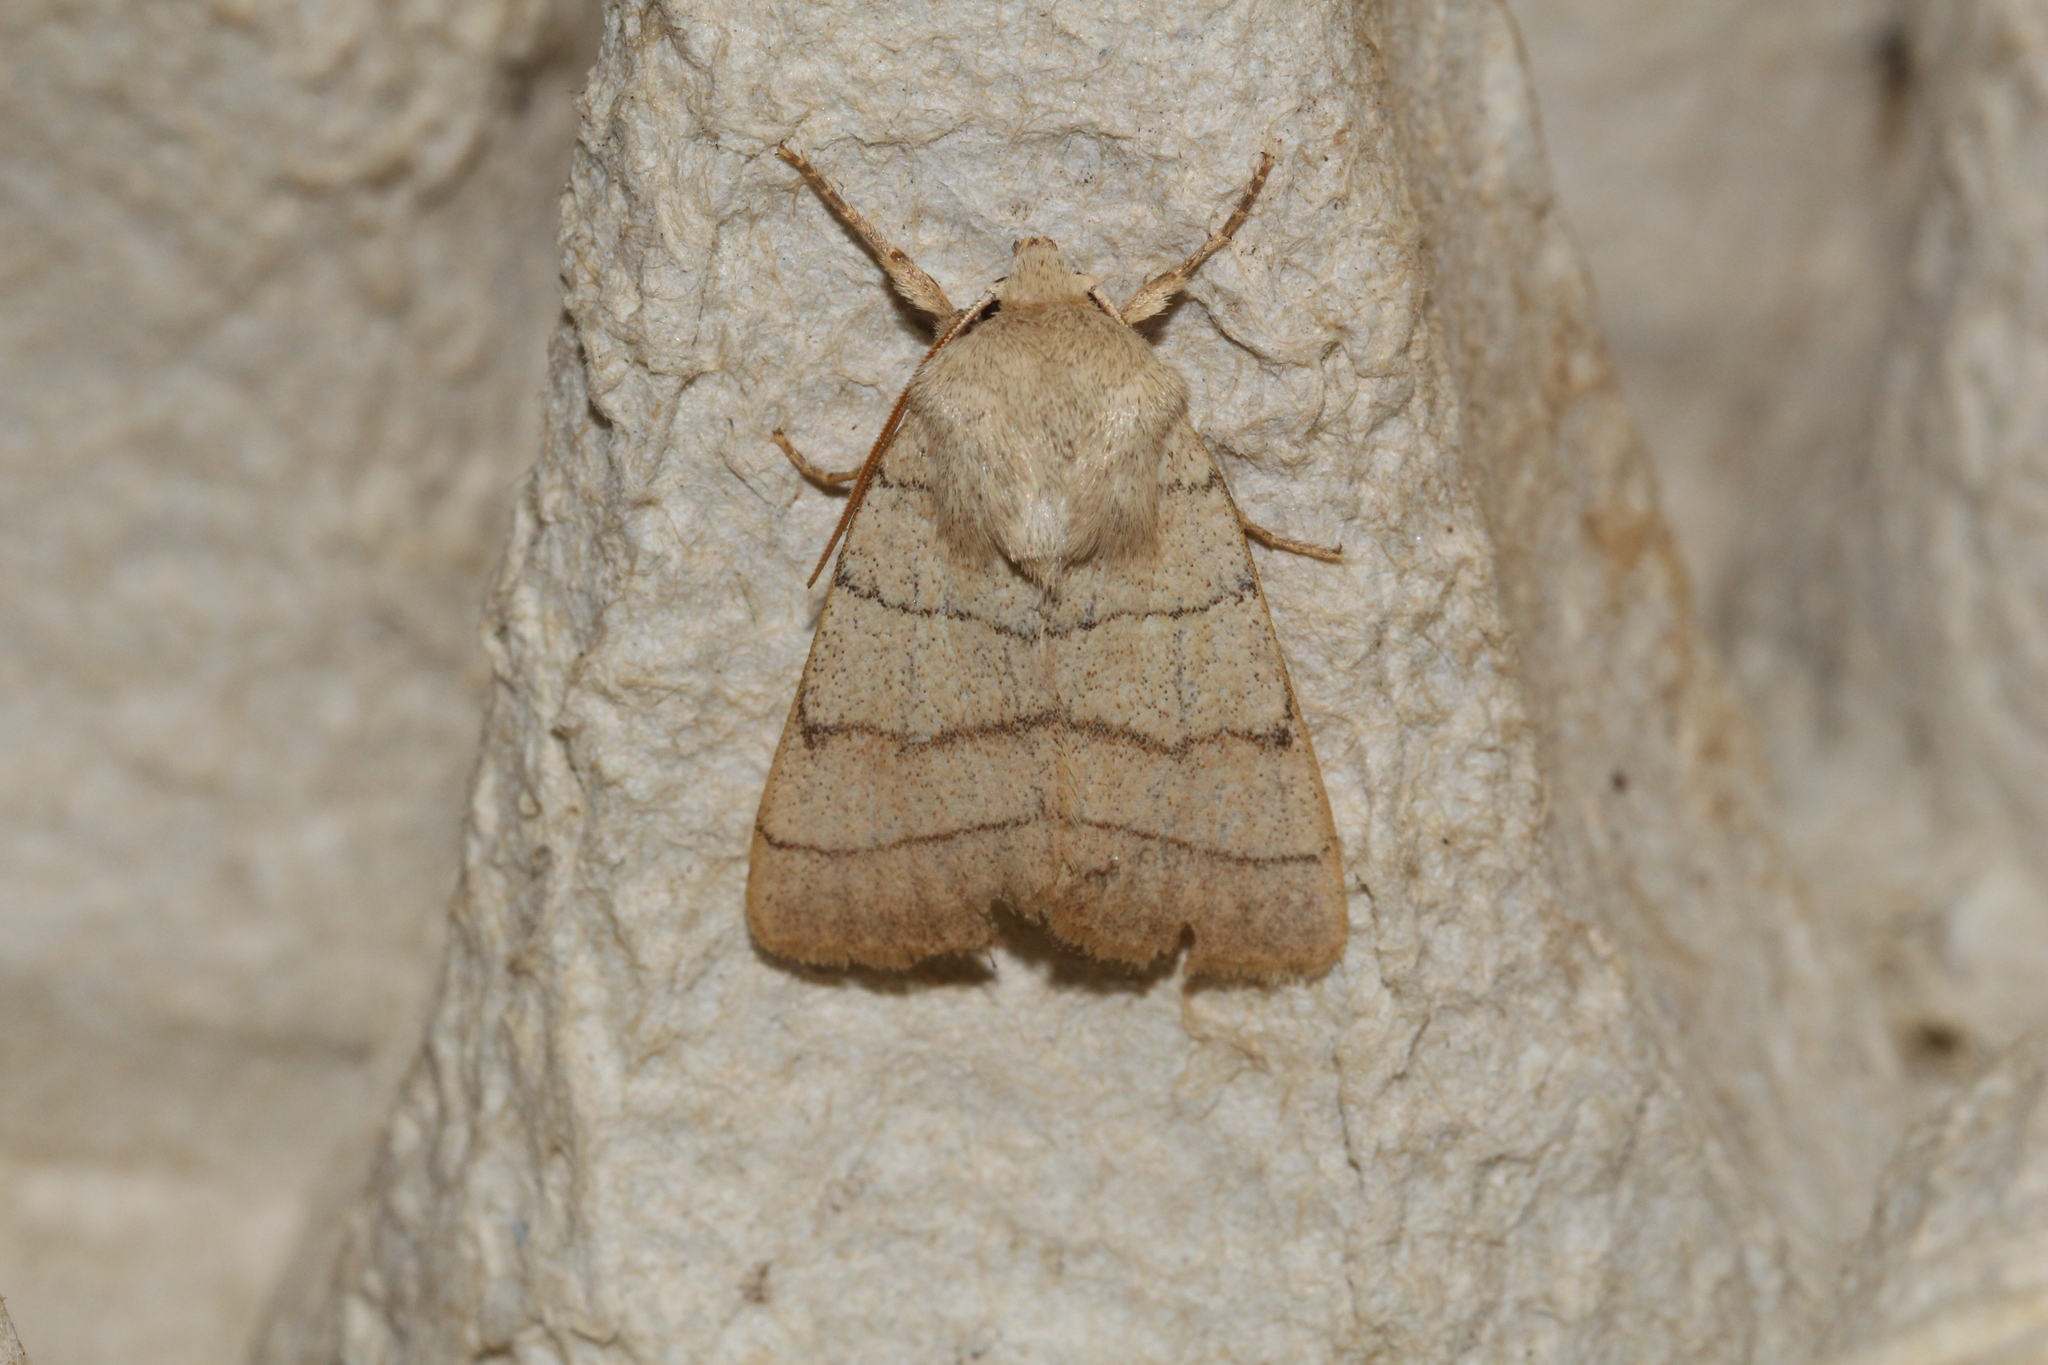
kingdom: Animalia
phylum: Arthropoda
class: Insecta
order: Lepidoptera
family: Noctuidae
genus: Charanyca
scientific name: Charanyca trigrammica
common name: Treble lines
